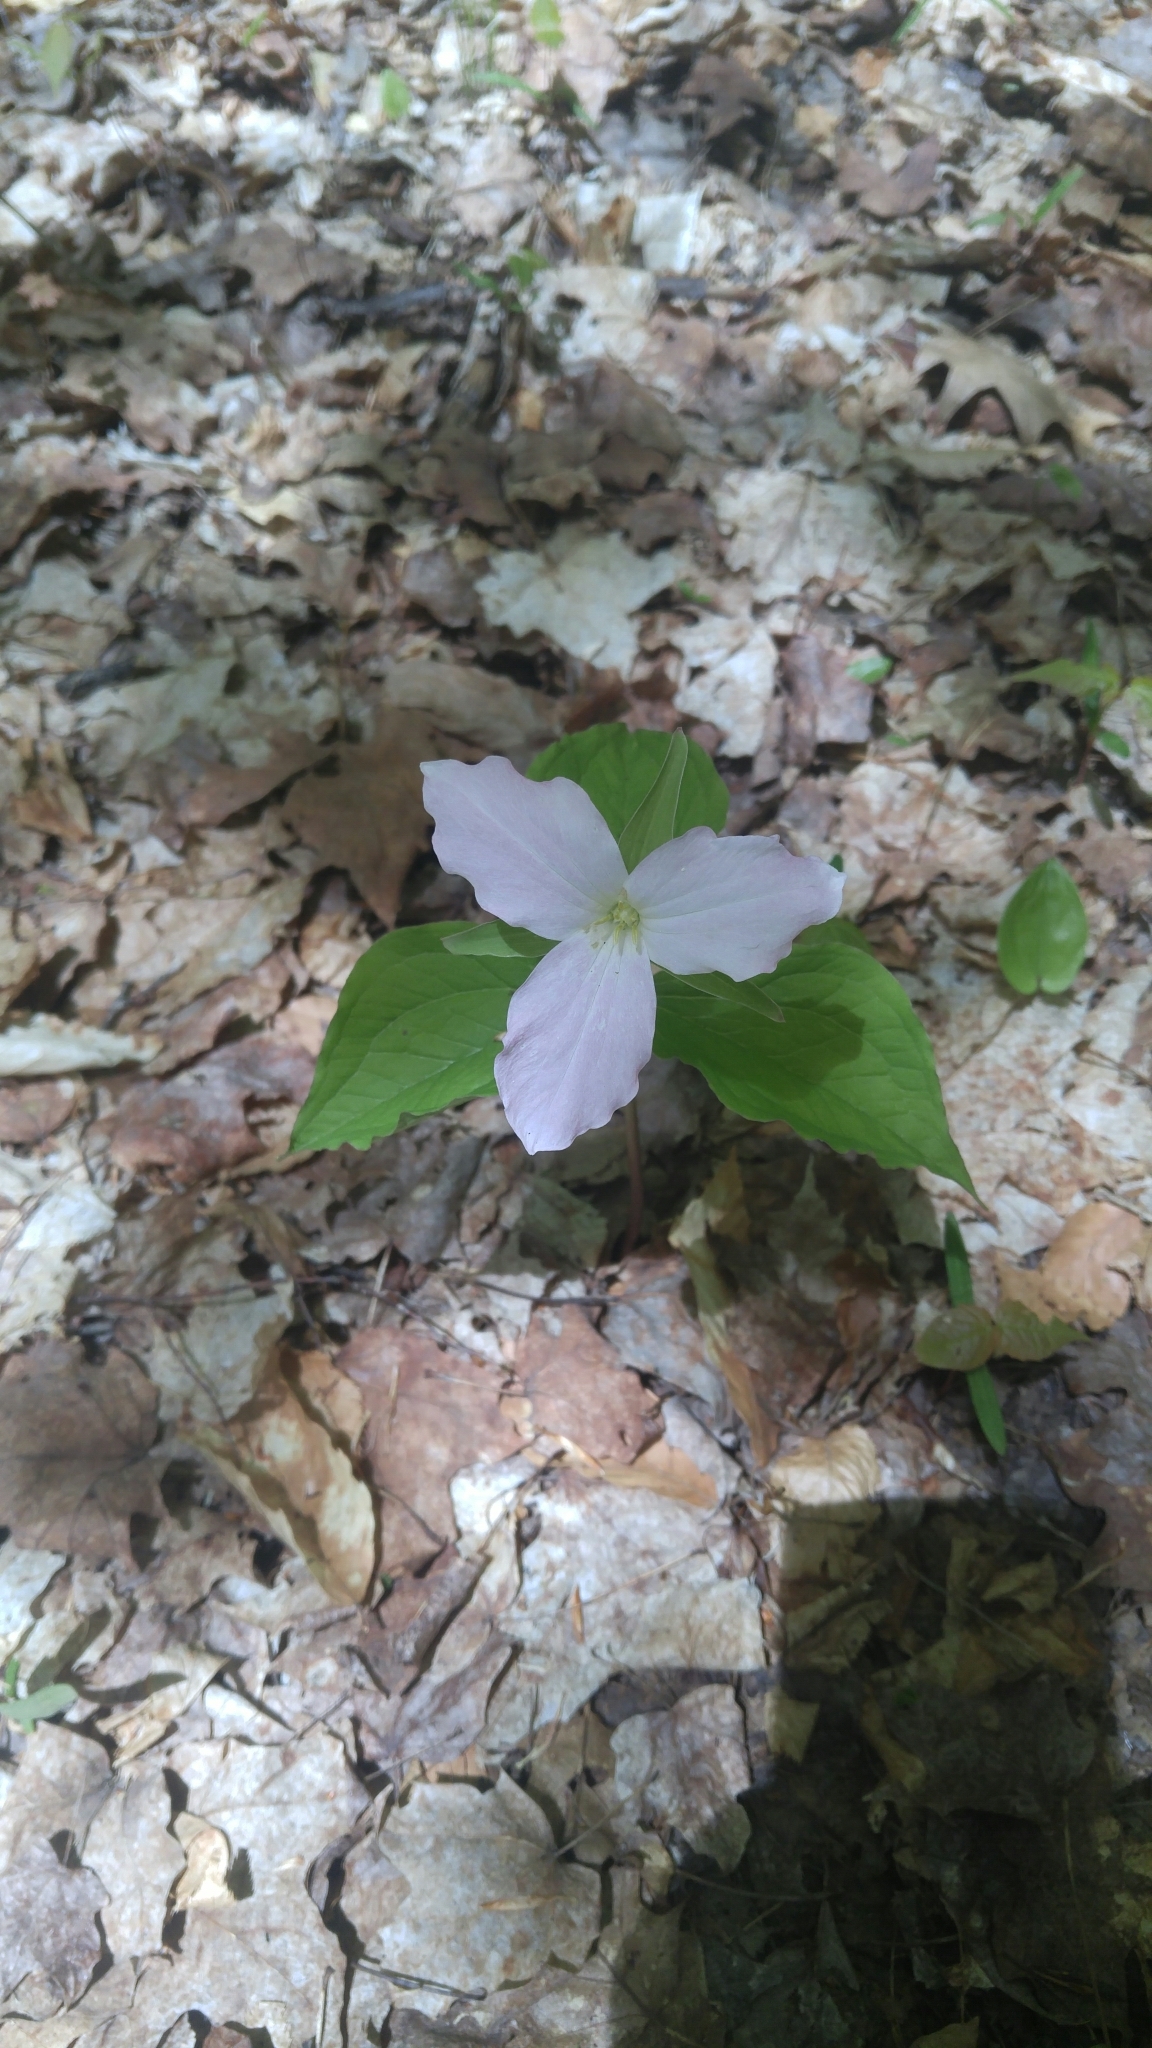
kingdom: Plantae
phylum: Tracheophyta
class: Liliopsida
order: Liliales
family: Melanthiaceae
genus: Trillium
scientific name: Trillium grandiflorum
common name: Great white trillium
